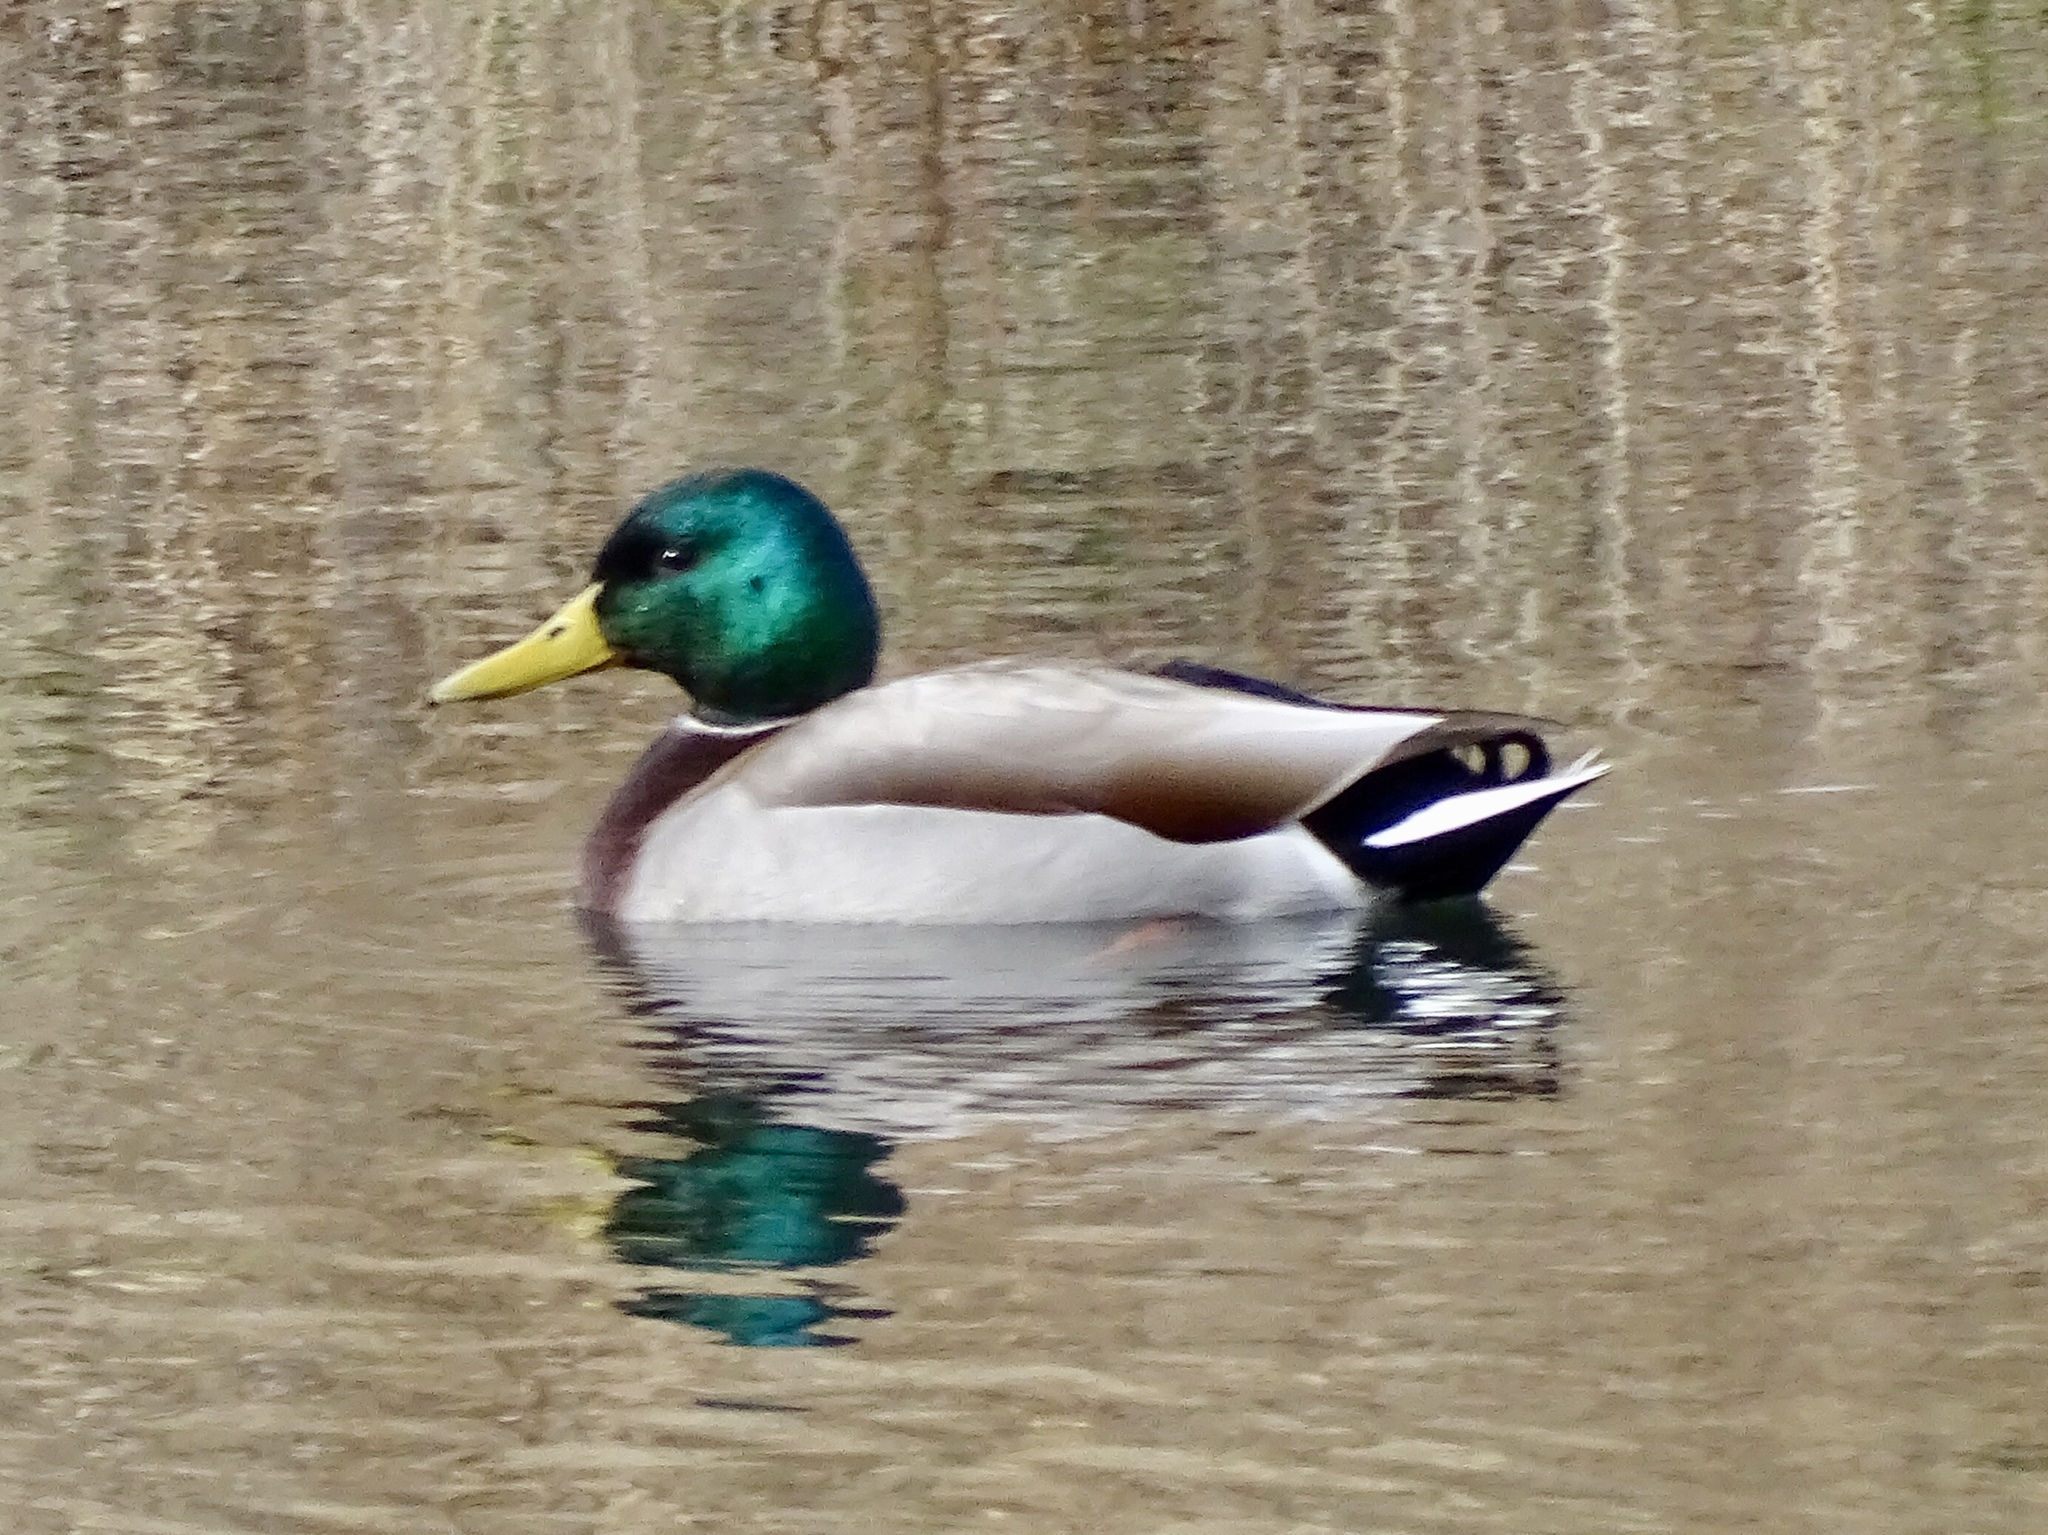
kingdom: Animalia
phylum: Chordata
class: Aves
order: Anseriformes
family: Anatidae
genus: Anas
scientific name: Anas platyrhynchos
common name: Mallard
